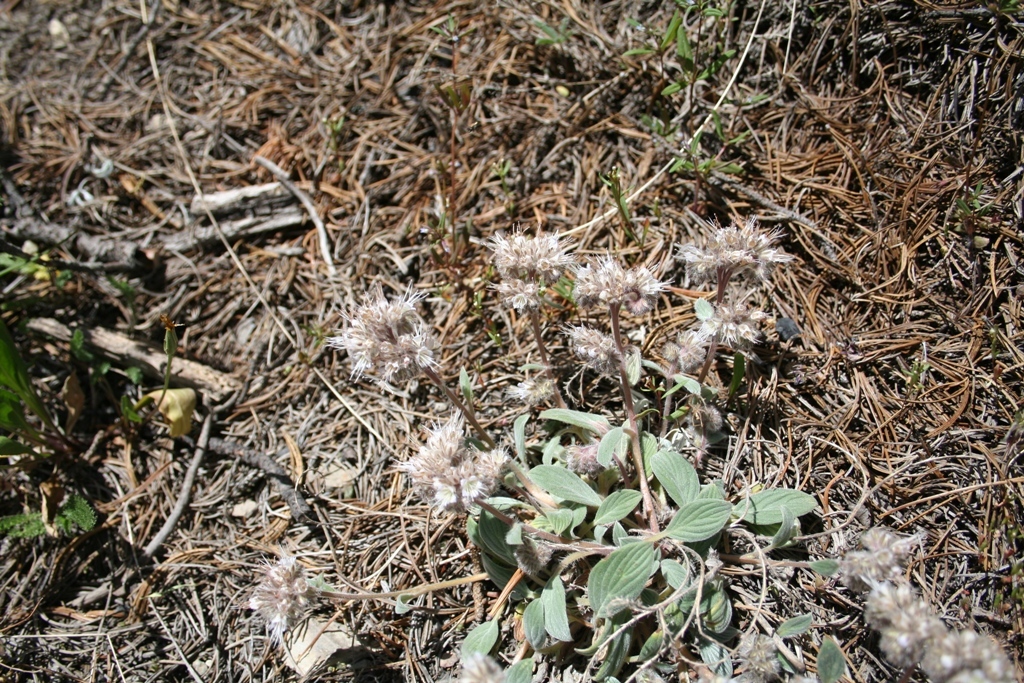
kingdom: Plantae
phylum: Tracheophyta
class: Magnoliopsida
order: Boraginales
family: Hydrophyllaceae
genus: Phacelia
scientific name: Phacelia hastata
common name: Silver-leaved phacelia
